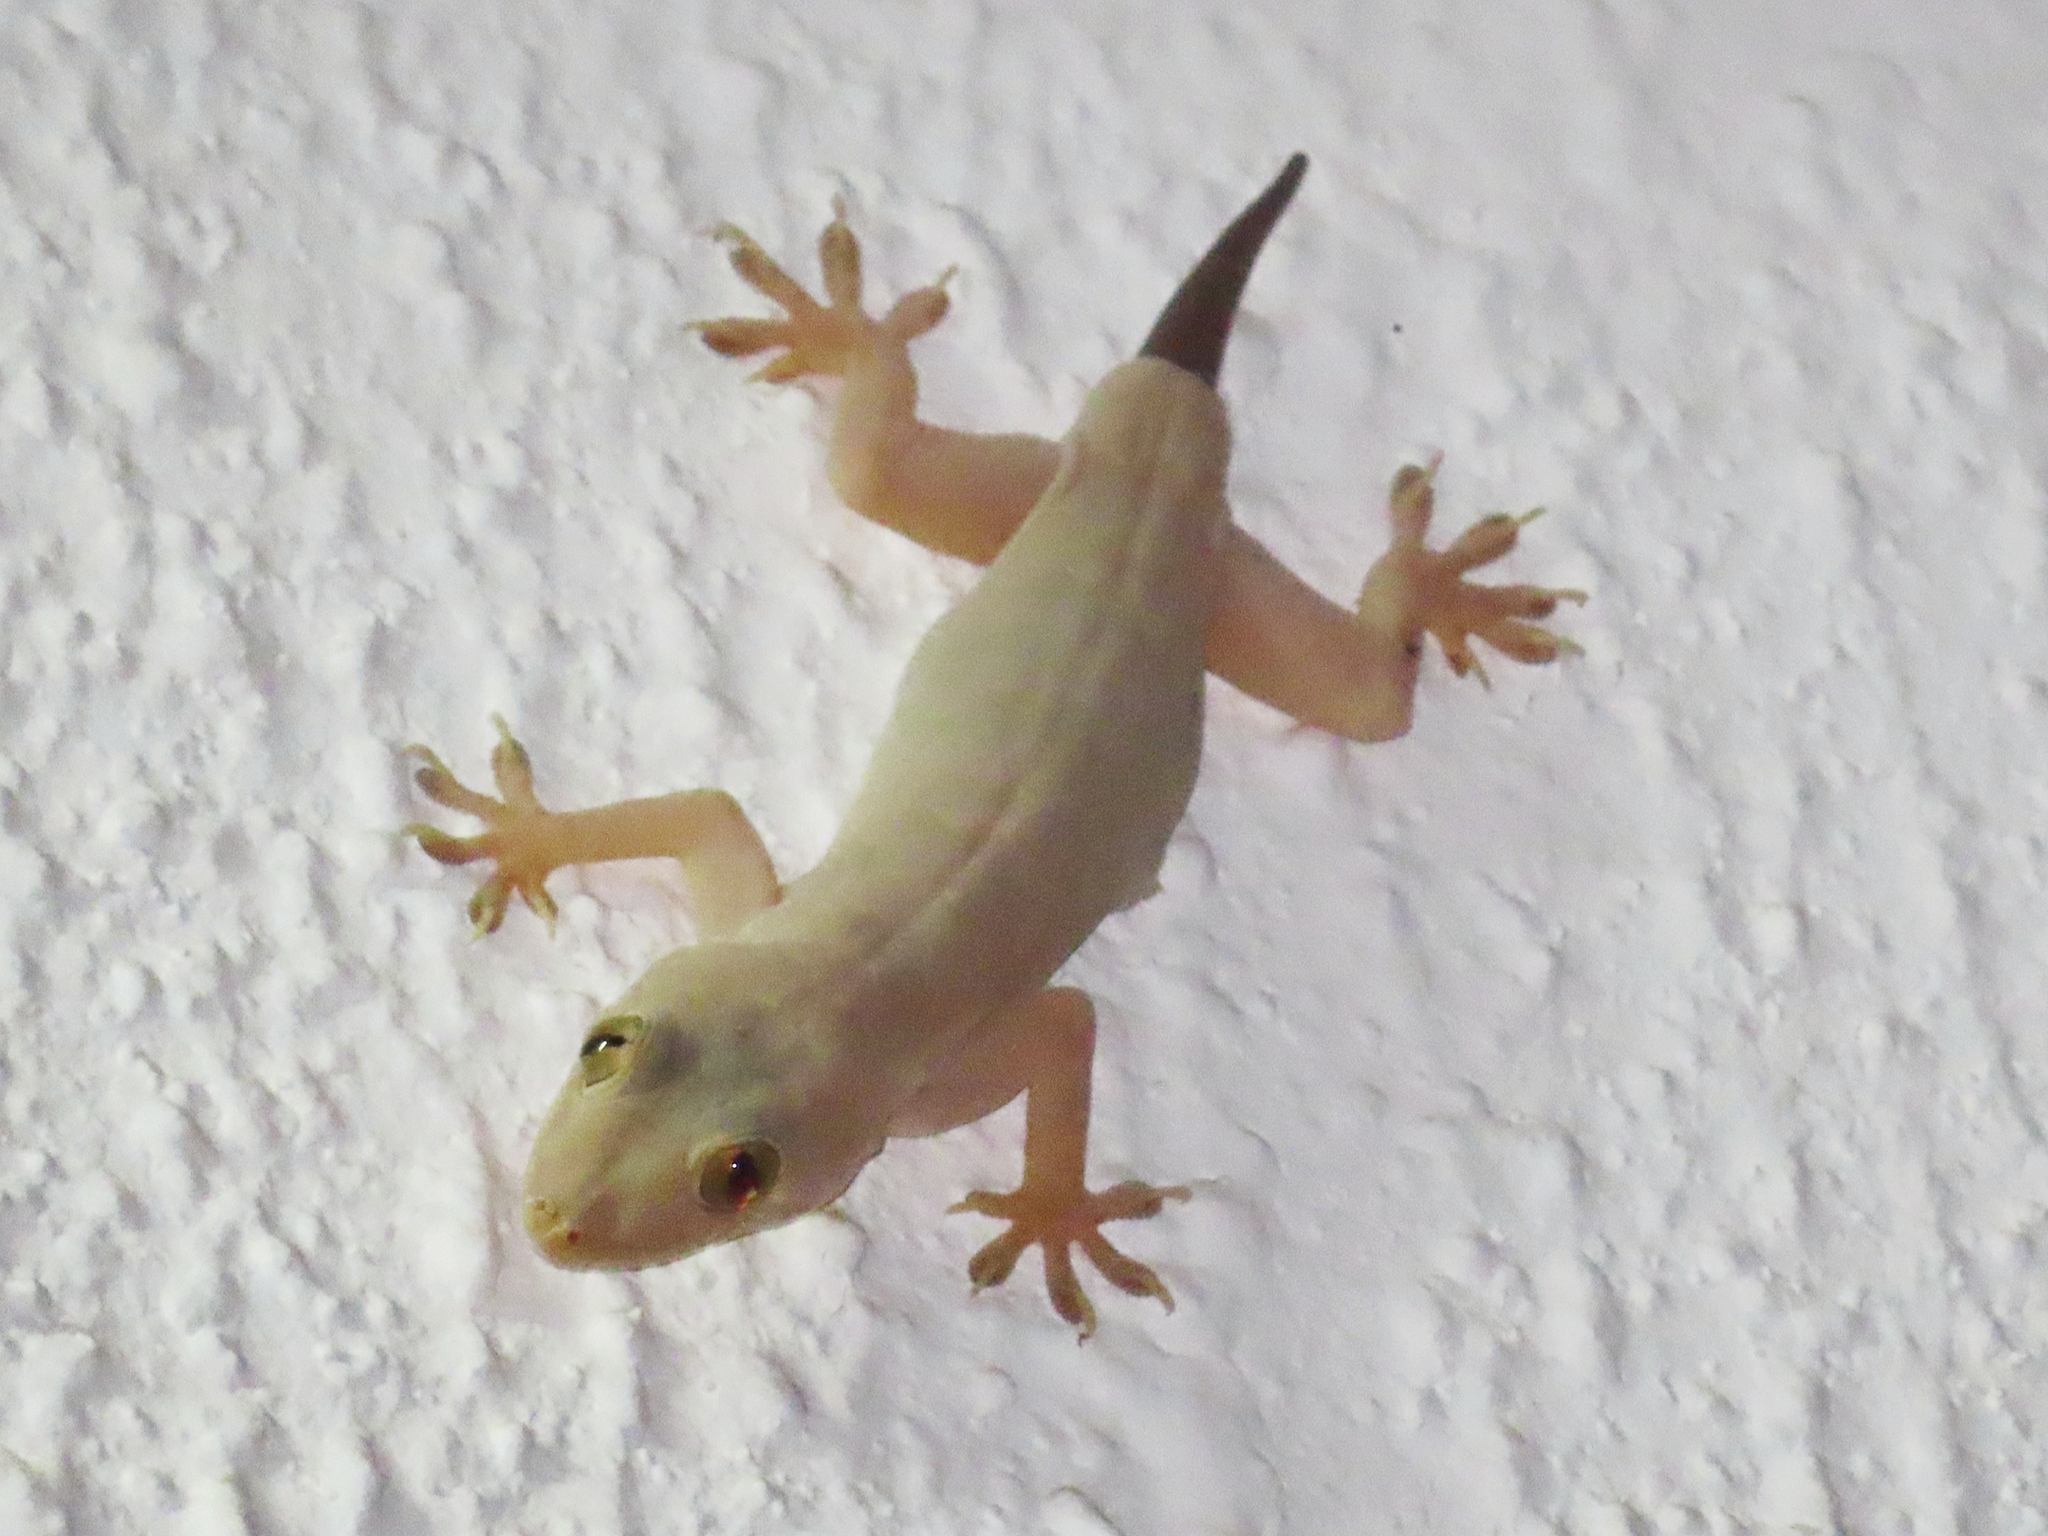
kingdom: Animalia
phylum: Chordata
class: Squamata
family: Gekkonidae
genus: Hemidactylus
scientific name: Hemidactylus flaviviridis
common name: Northern house gecko
